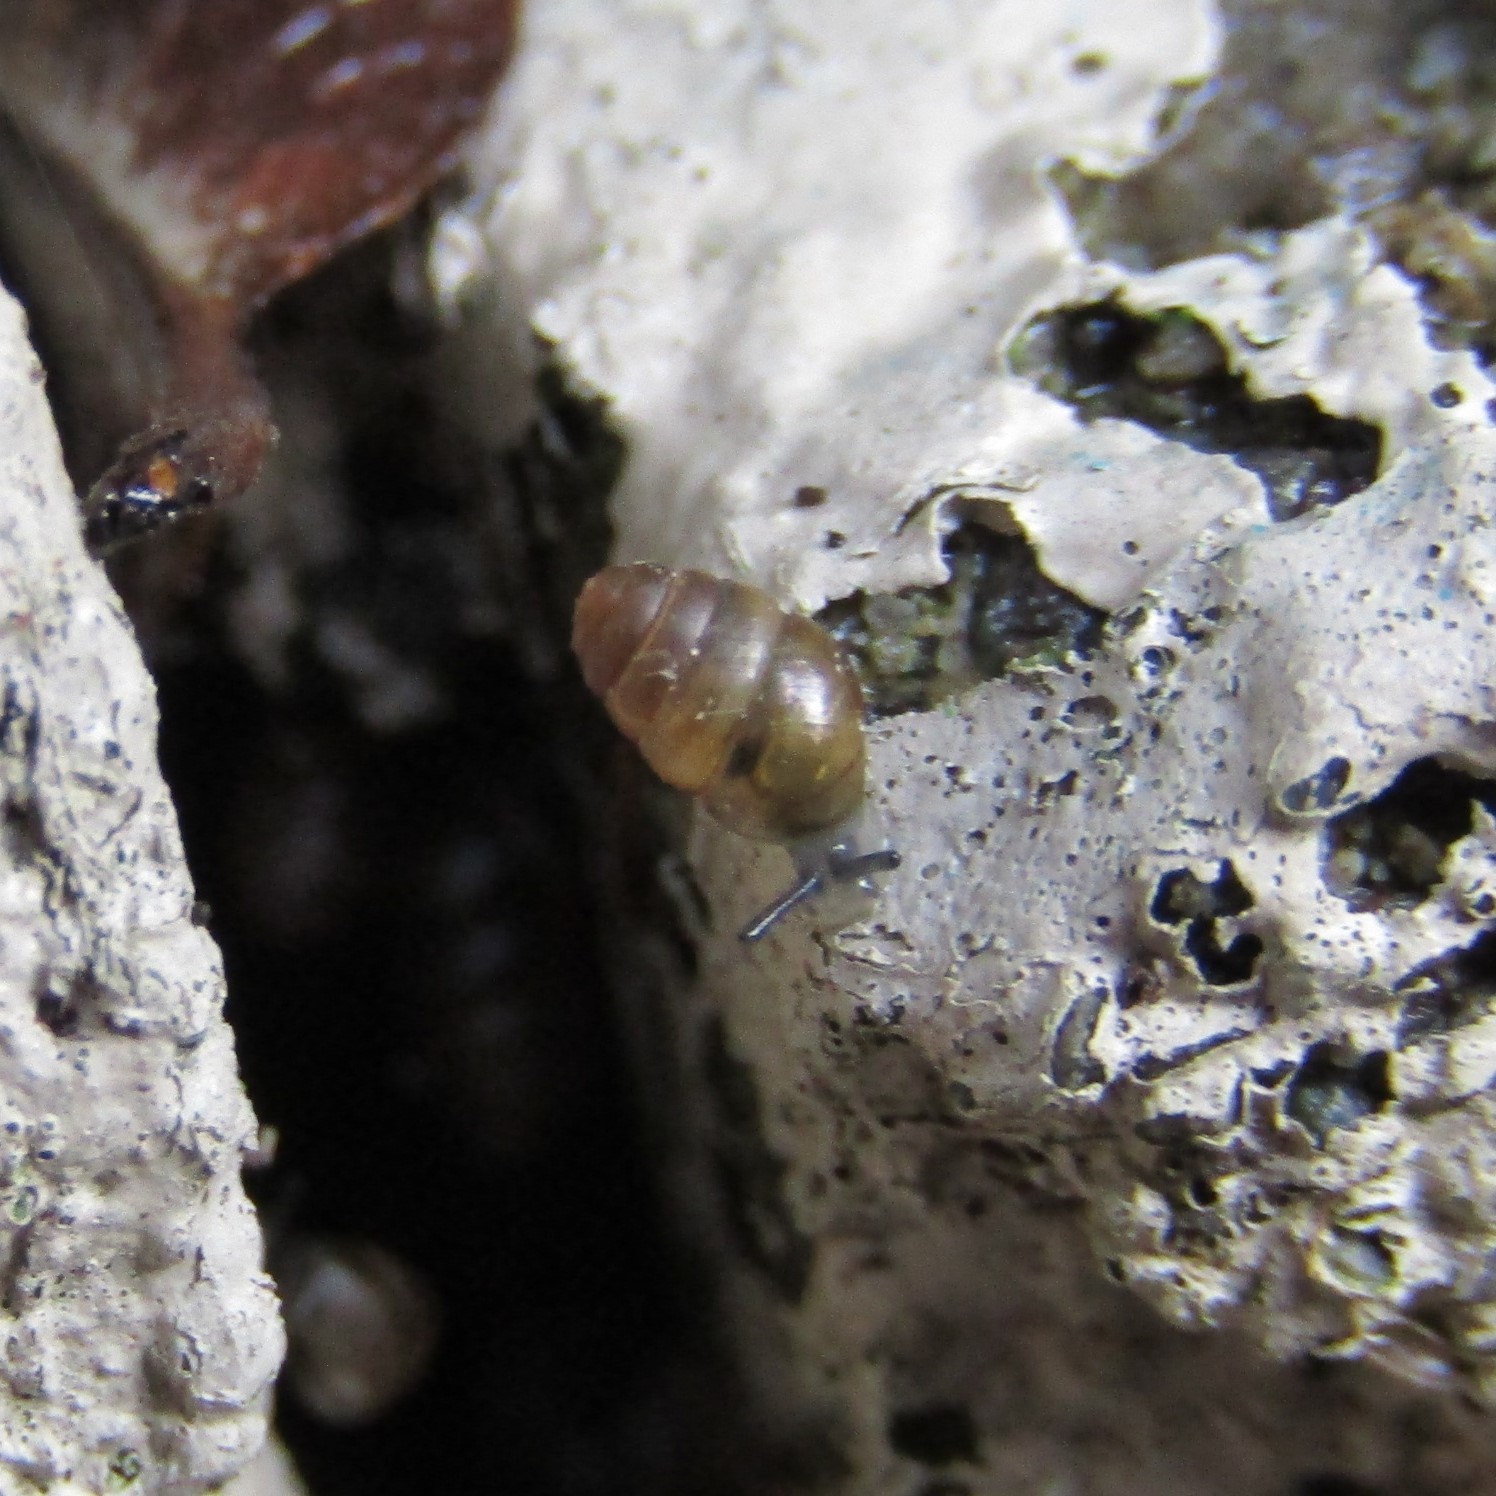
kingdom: Animalia
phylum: Mollusca
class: Gastropoda
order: Stylommatophora
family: Lauriidae
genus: Lauria
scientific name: Lauria cylindracea
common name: Common chrysalis snail
